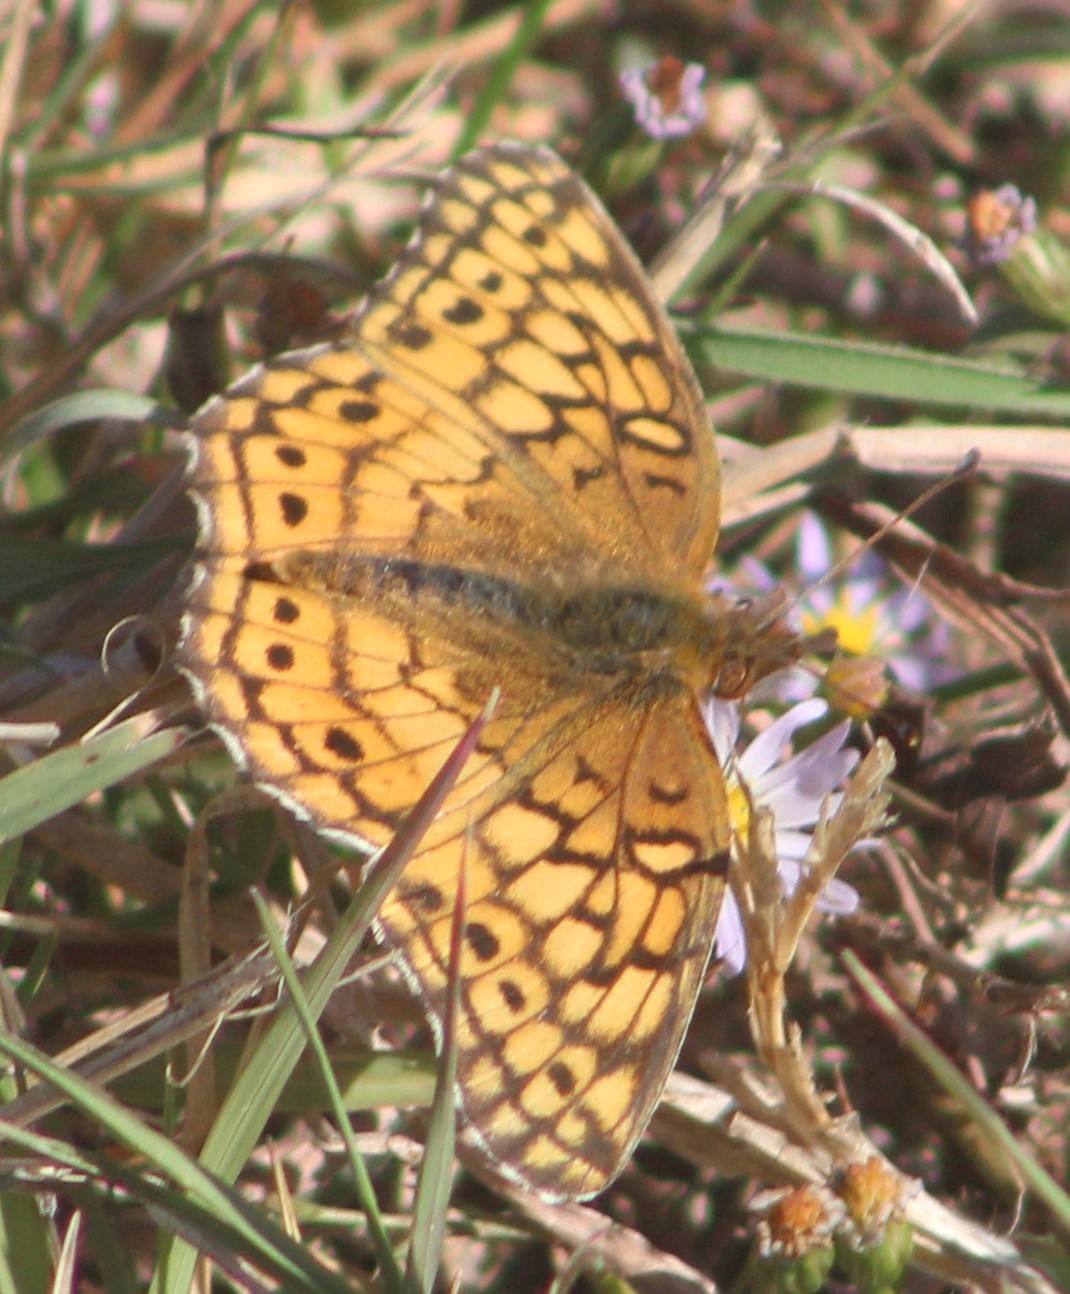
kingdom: Animalia
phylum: Arthropoda
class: Insecta
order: Lepidoptera
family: Nymphalidae
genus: Euptoieta
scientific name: Euptoieta claudia
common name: Variegated fritillary
